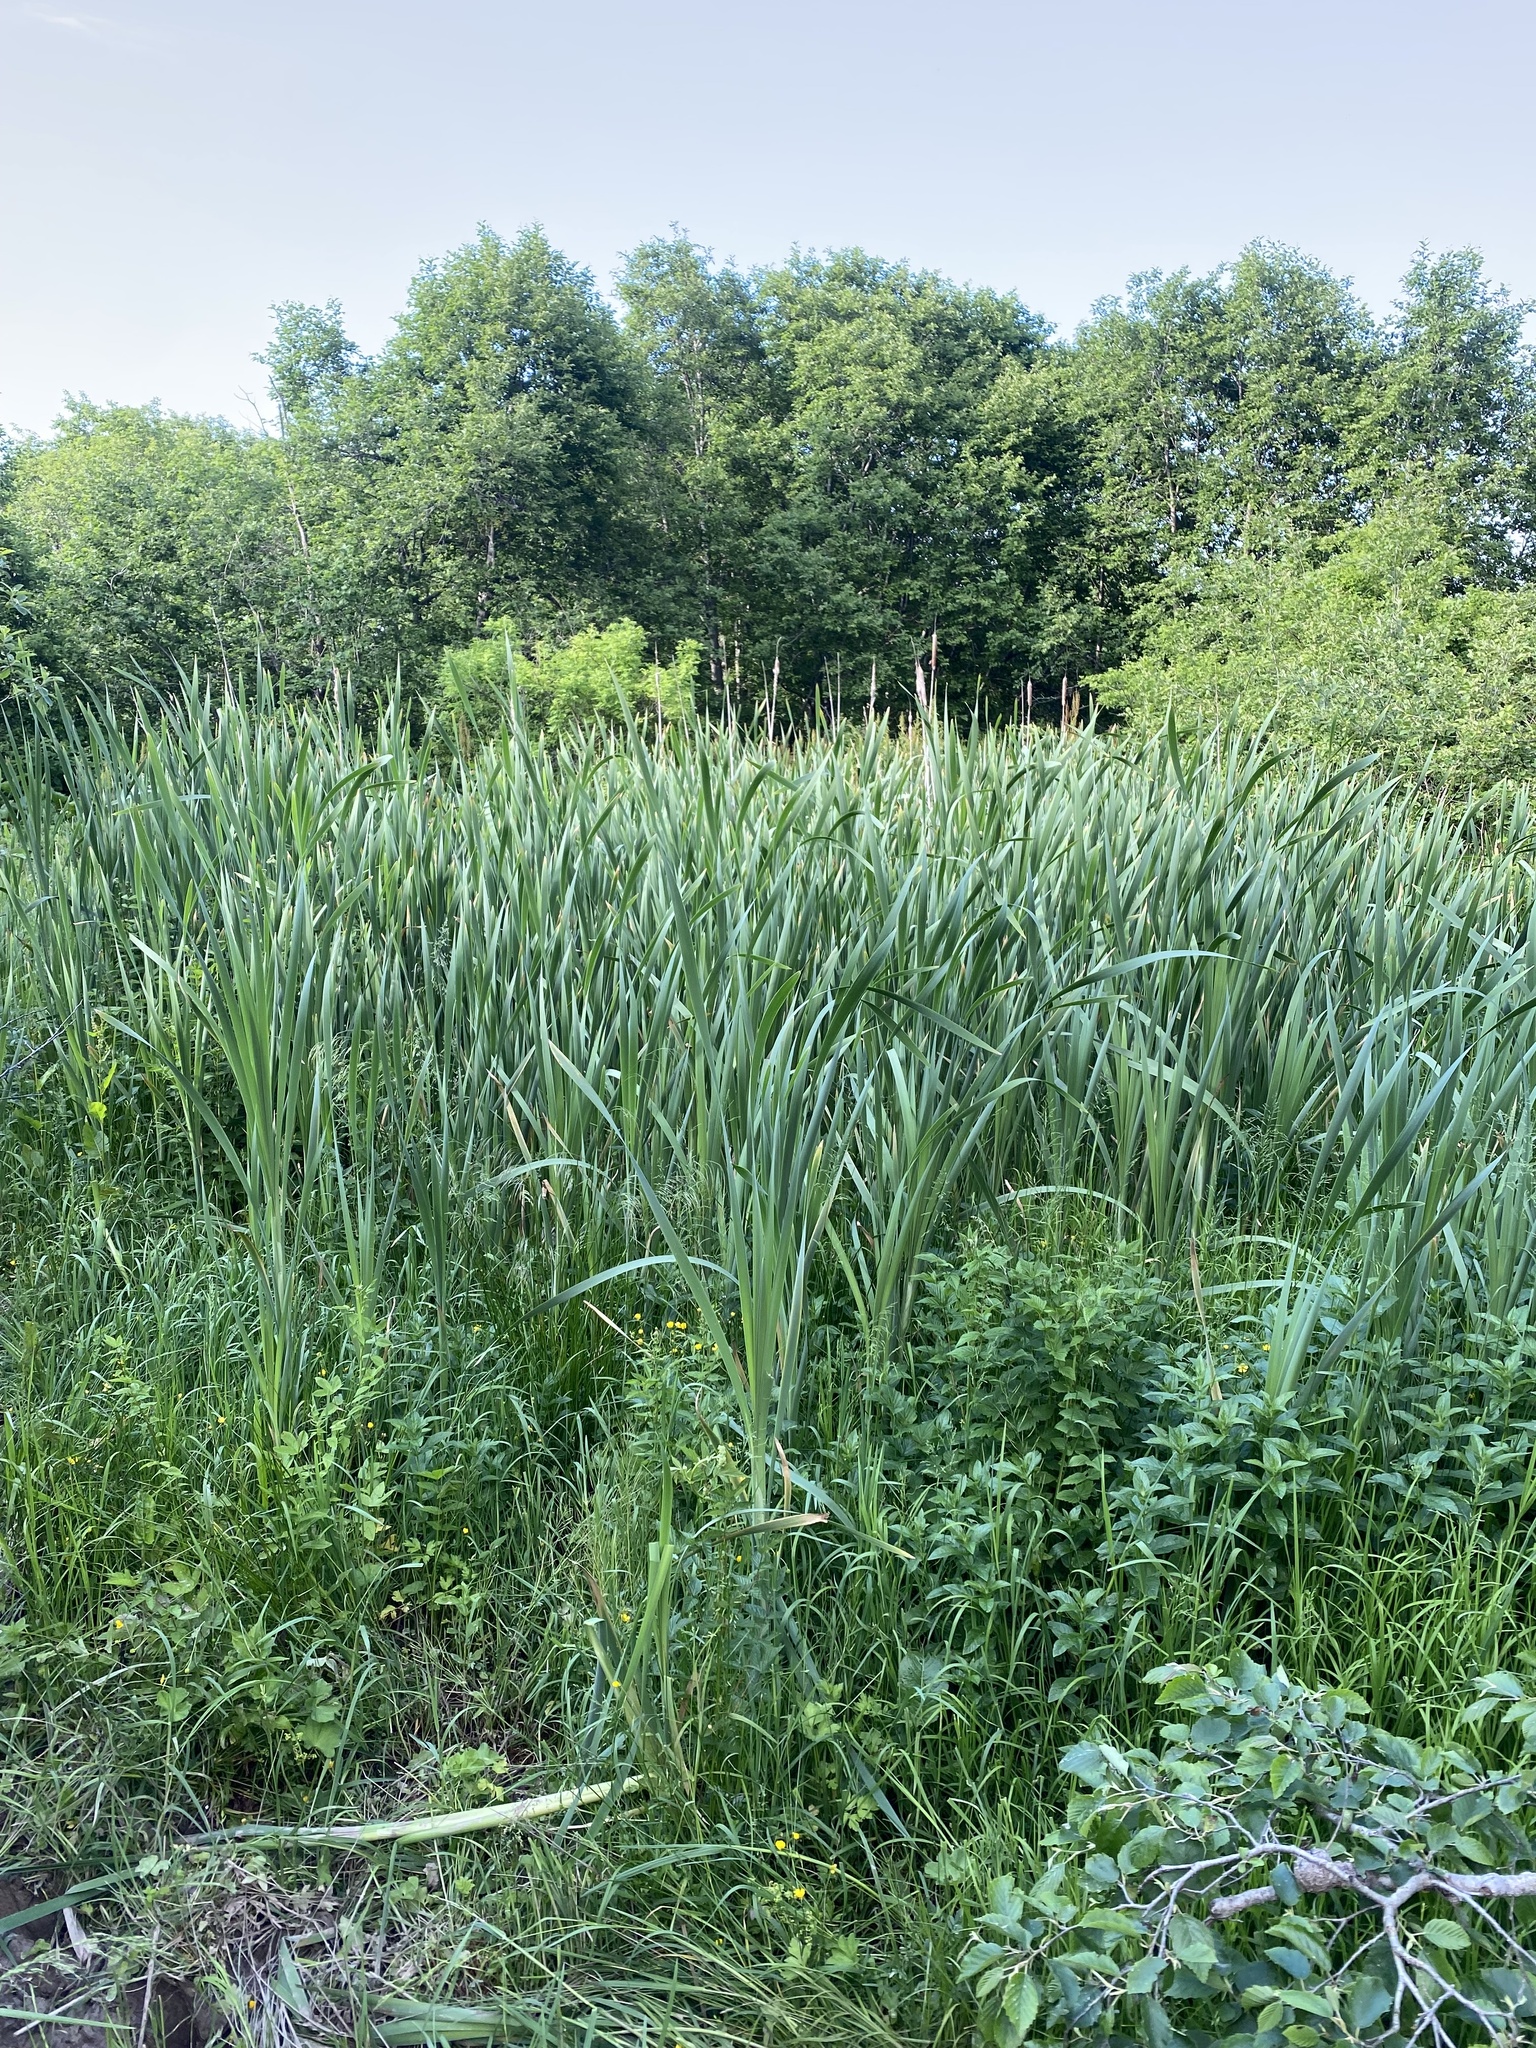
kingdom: Plantae
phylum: Tracheophyta
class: Liliopsida
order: Poales
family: Typhaceae
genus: Typha
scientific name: Typha latifolia
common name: Broadleaf cattail
